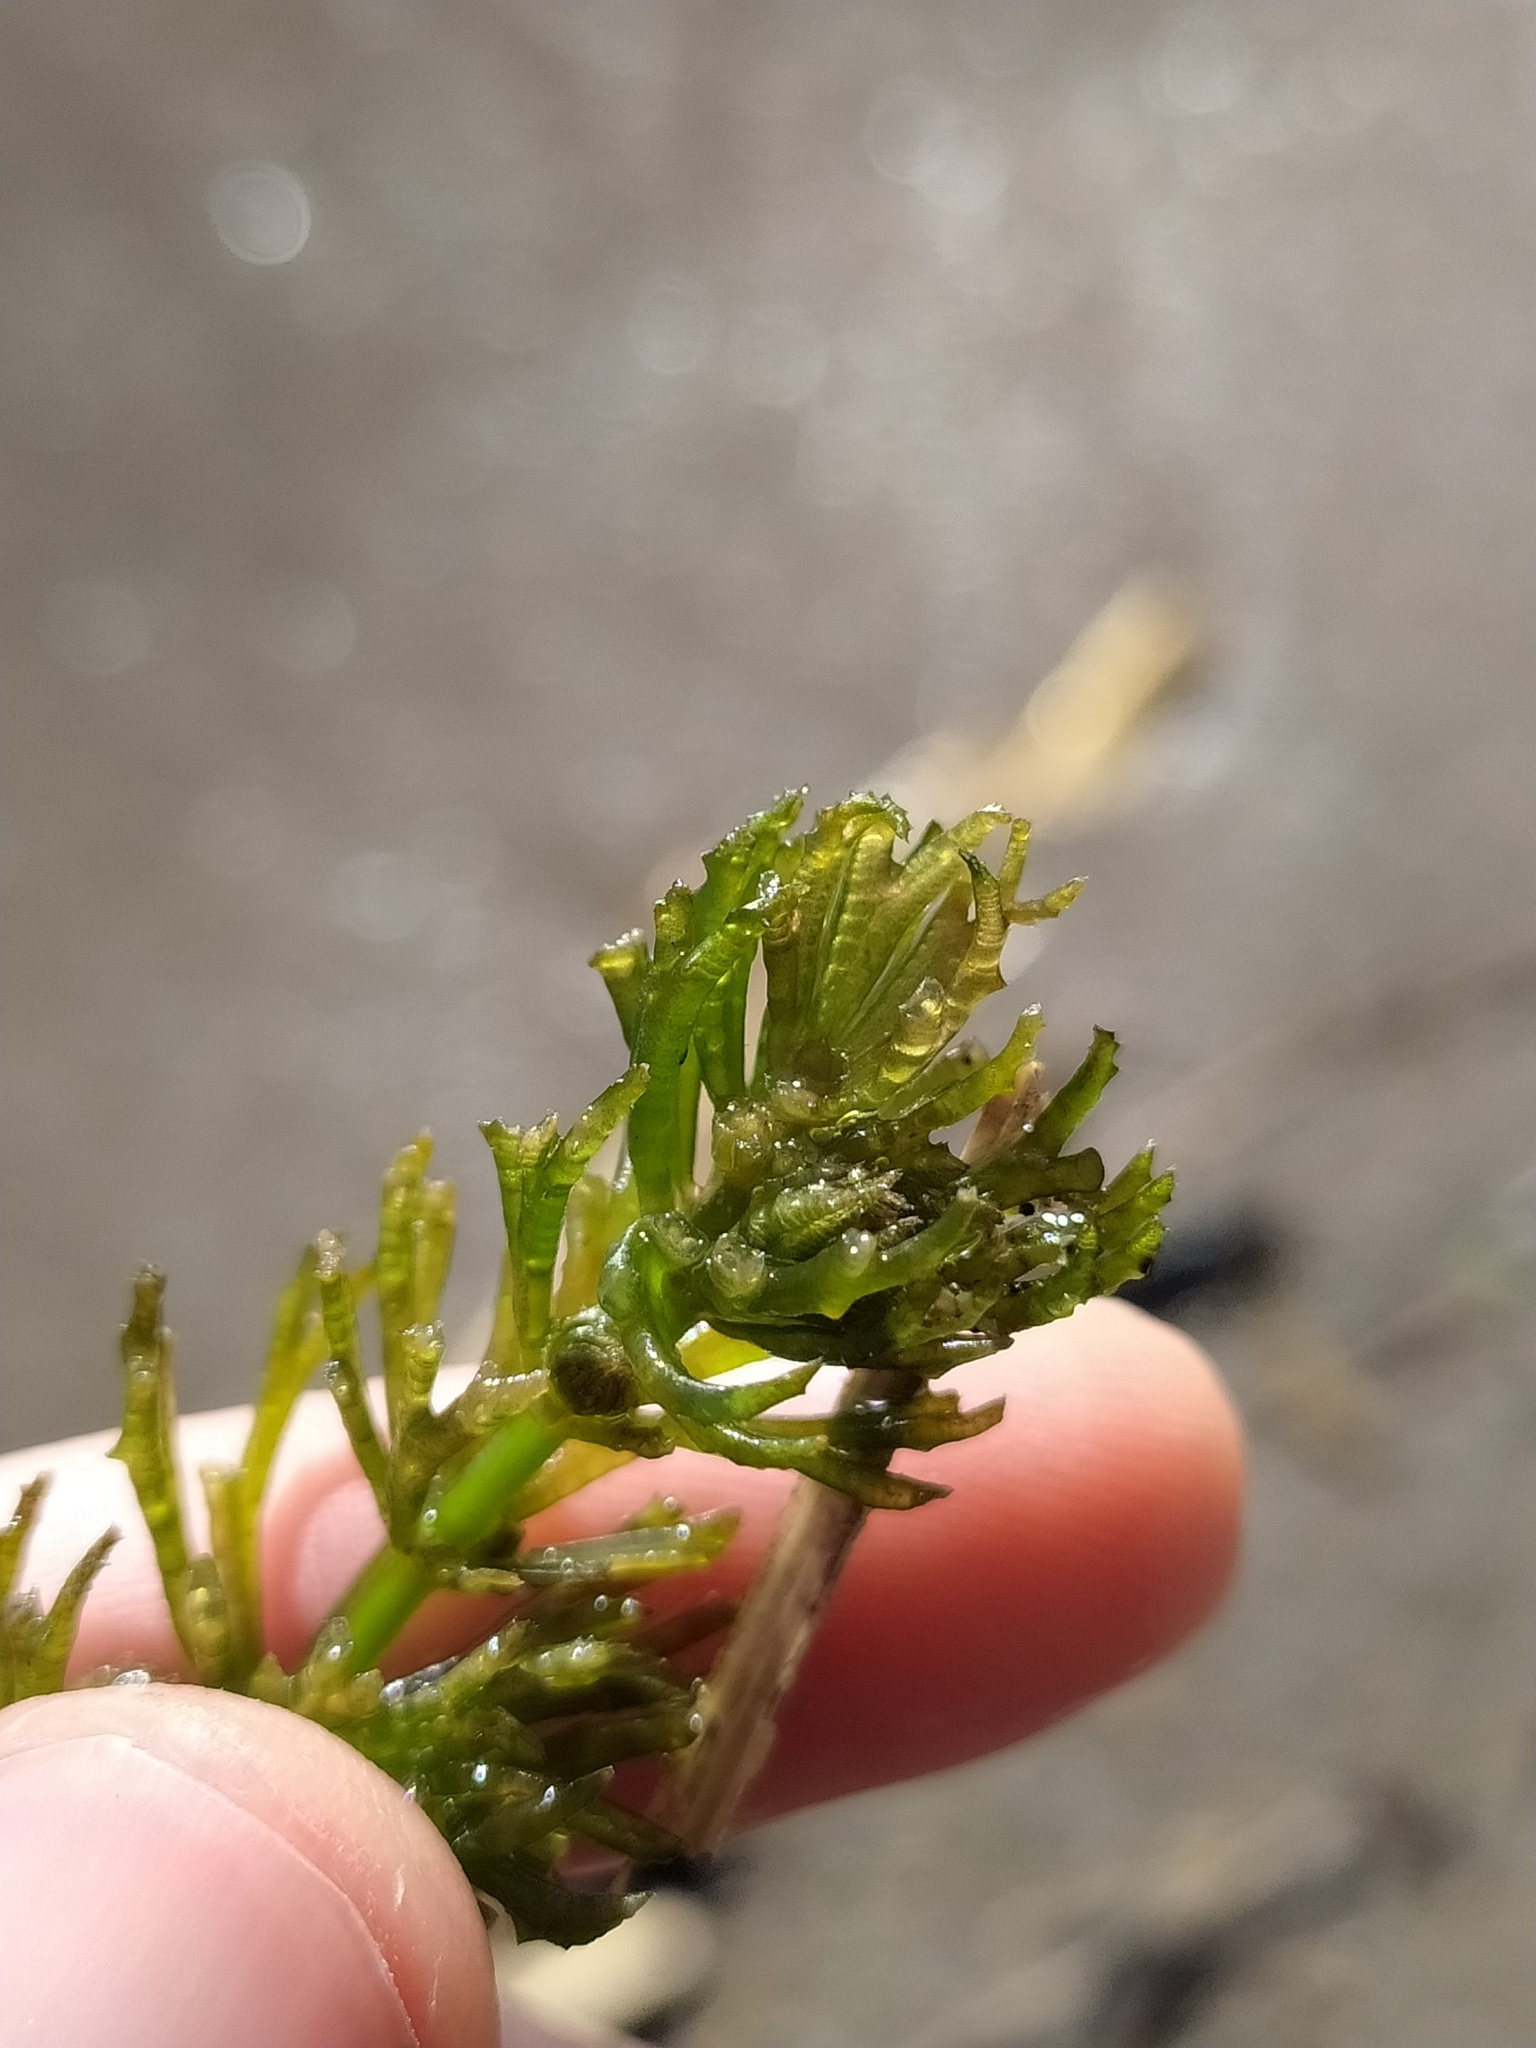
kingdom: Plantae
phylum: Tracheophyta
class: Magnoliopsida
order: Ceratophyllales
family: Ceratophyllaceae
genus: Ceratophyllum
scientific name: Ceratophyllum demersum
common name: Rigid hornwort
